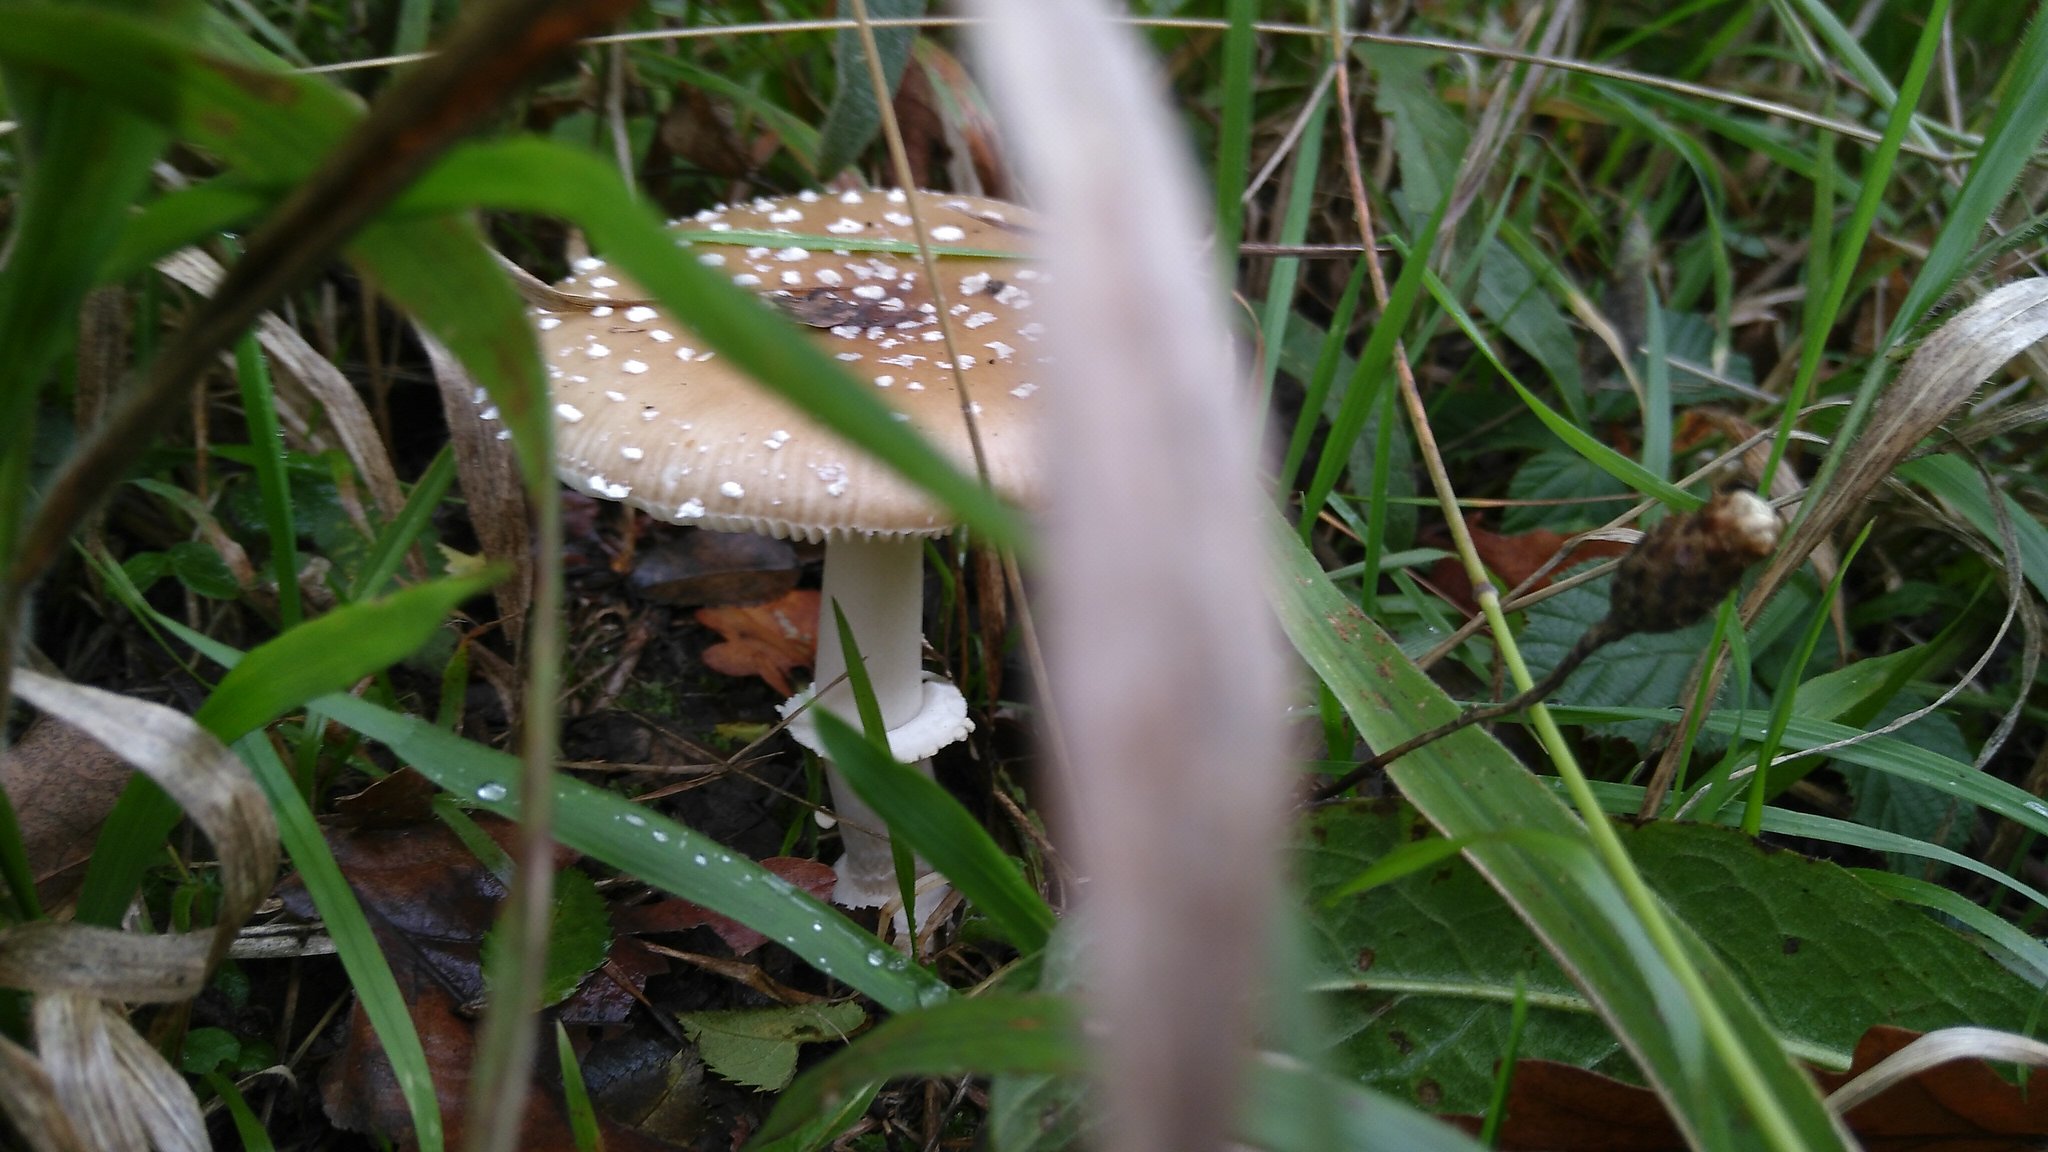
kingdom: Fungi
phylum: Basidiomycota
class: Agaricomycetes
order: Agaricales
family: Amanitaceae
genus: Amanita
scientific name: Amanita pantherina
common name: Panthercap
